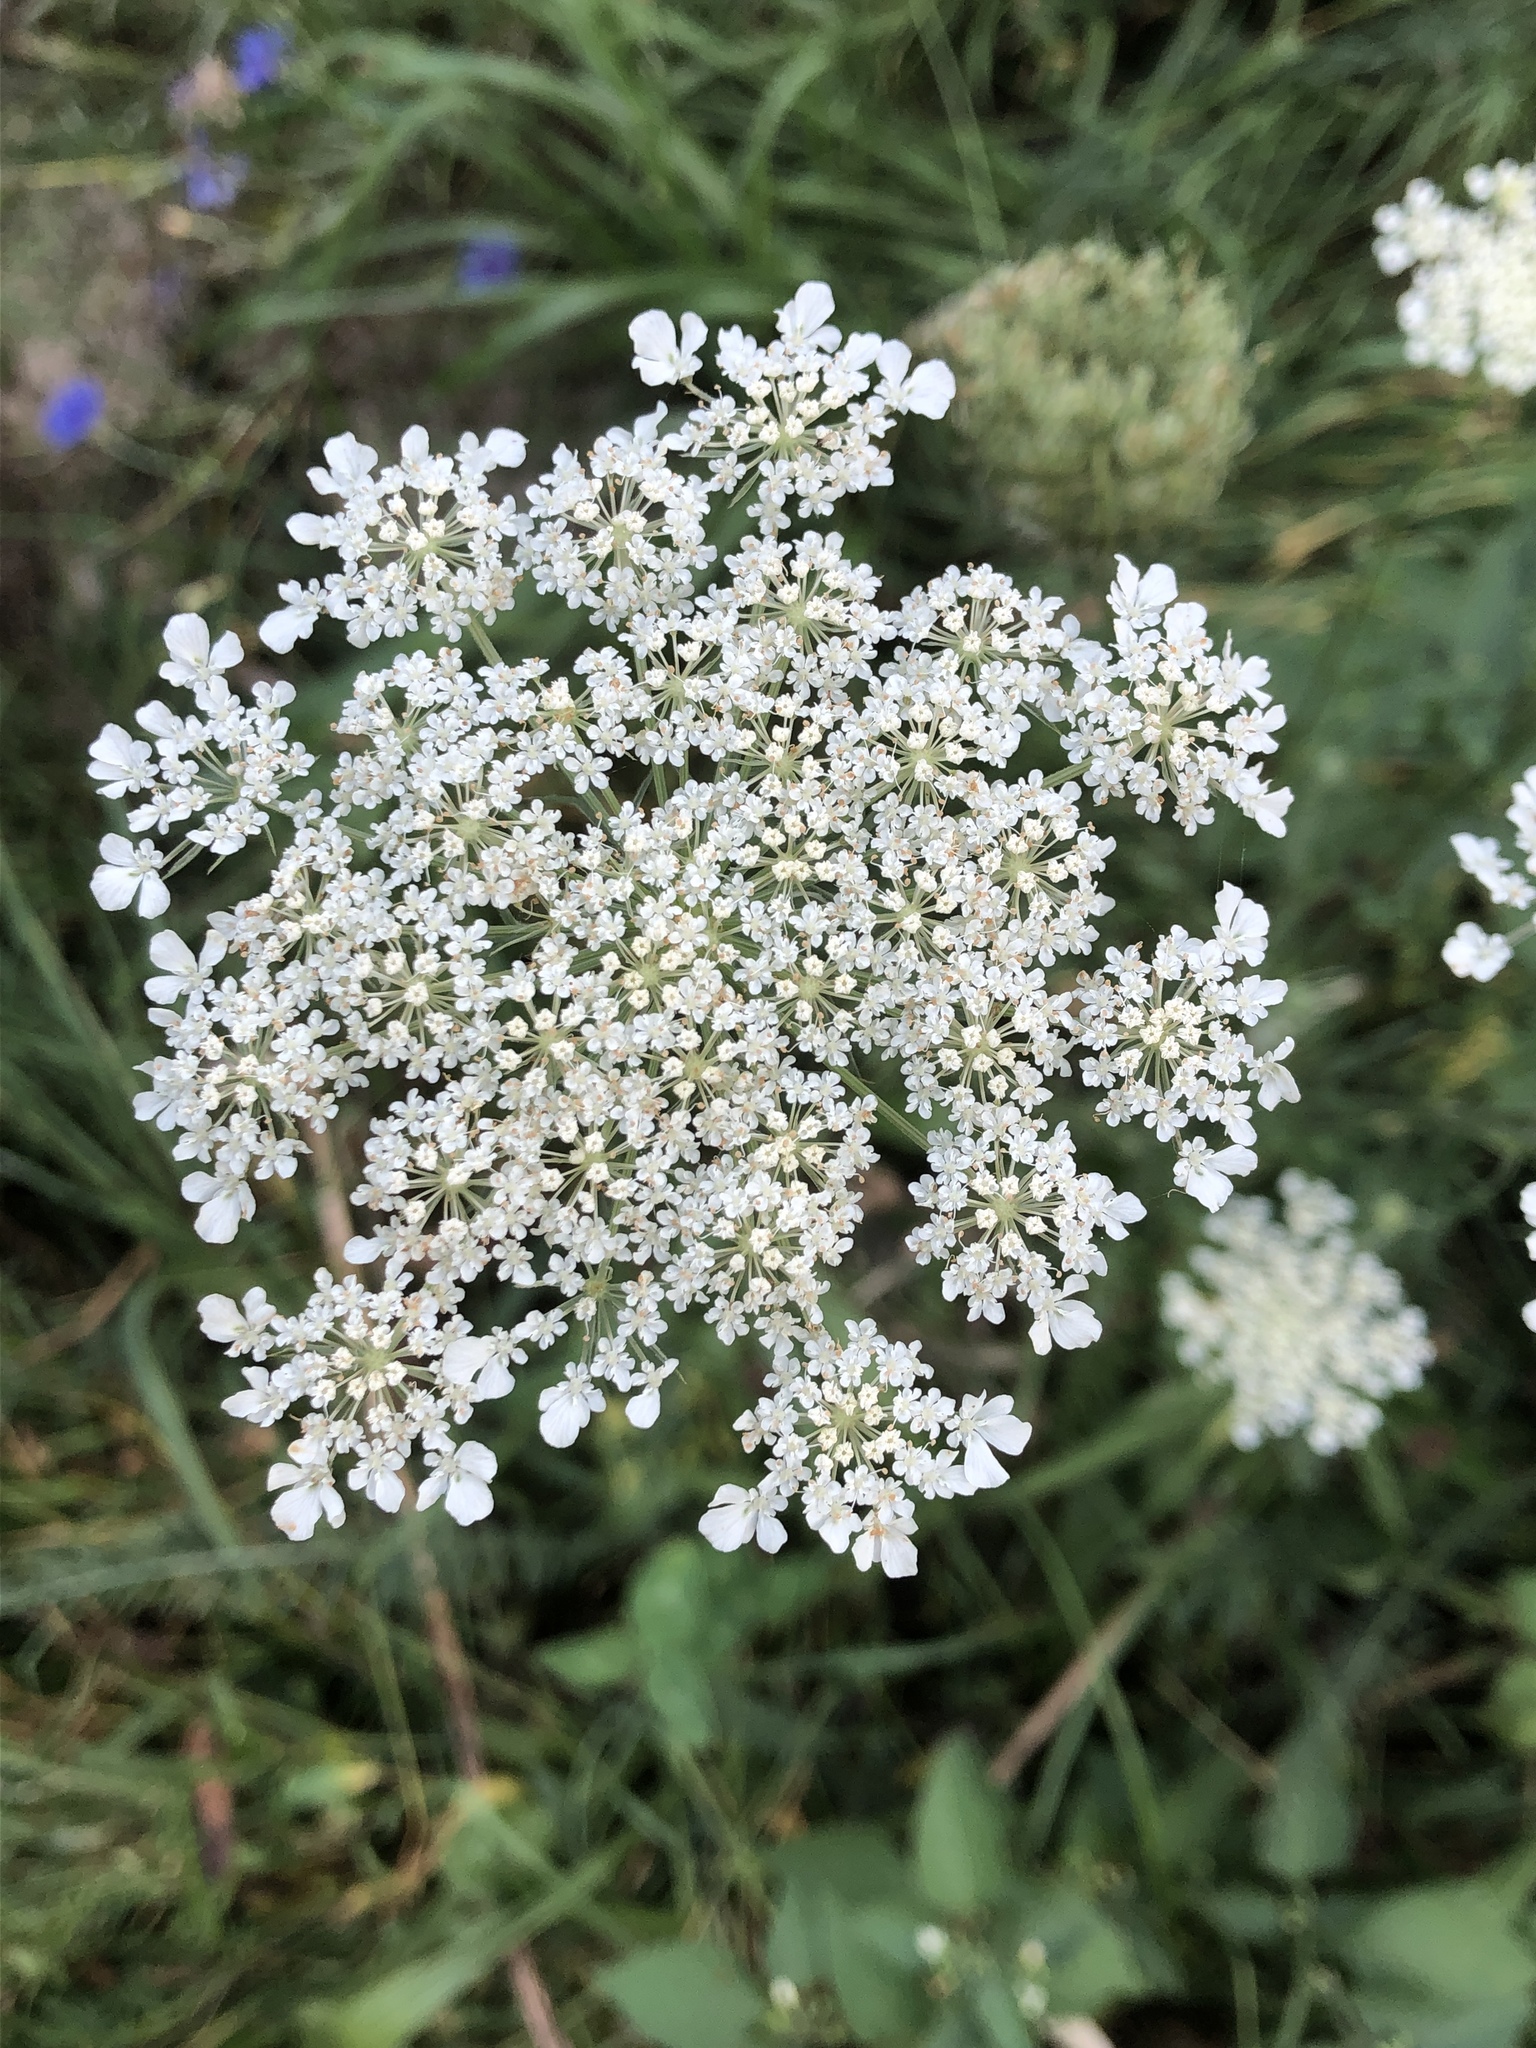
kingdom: Plantae
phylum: Tracheophyta
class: Magnoliopsida
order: Apiales
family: Apiaceae
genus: Daucus
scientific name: Daucus carota
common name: Wild carrot
